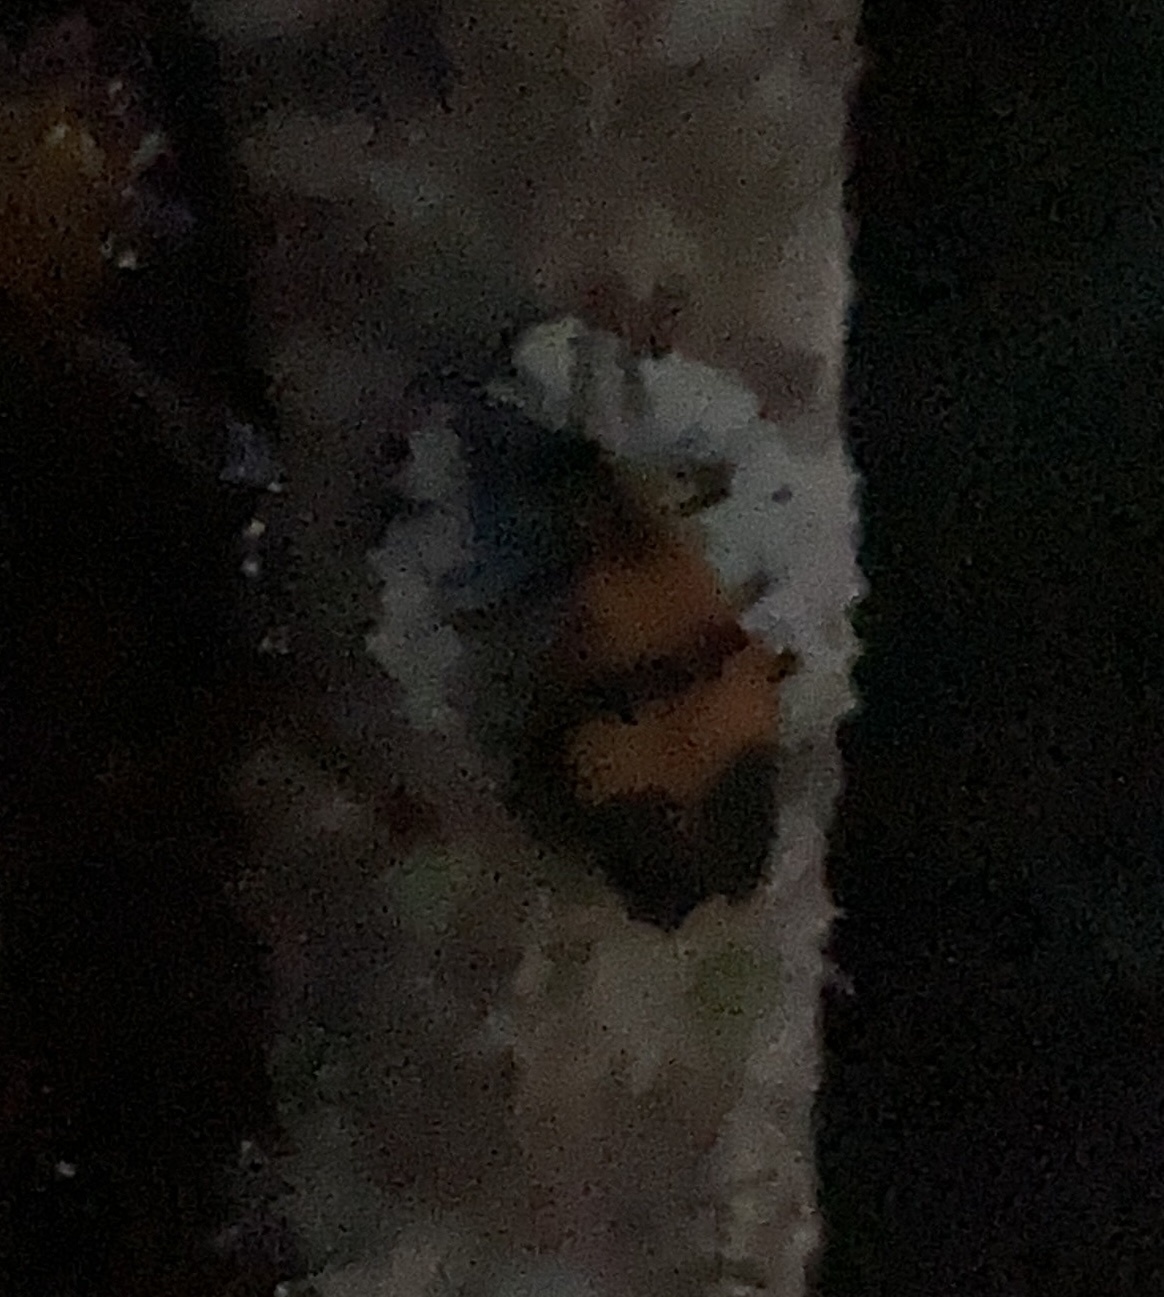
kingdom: Animalia
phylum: Arthropoda
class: Insecta
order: Coleoptera
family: Lycidae
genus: Calopteron
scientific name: Calopteron
